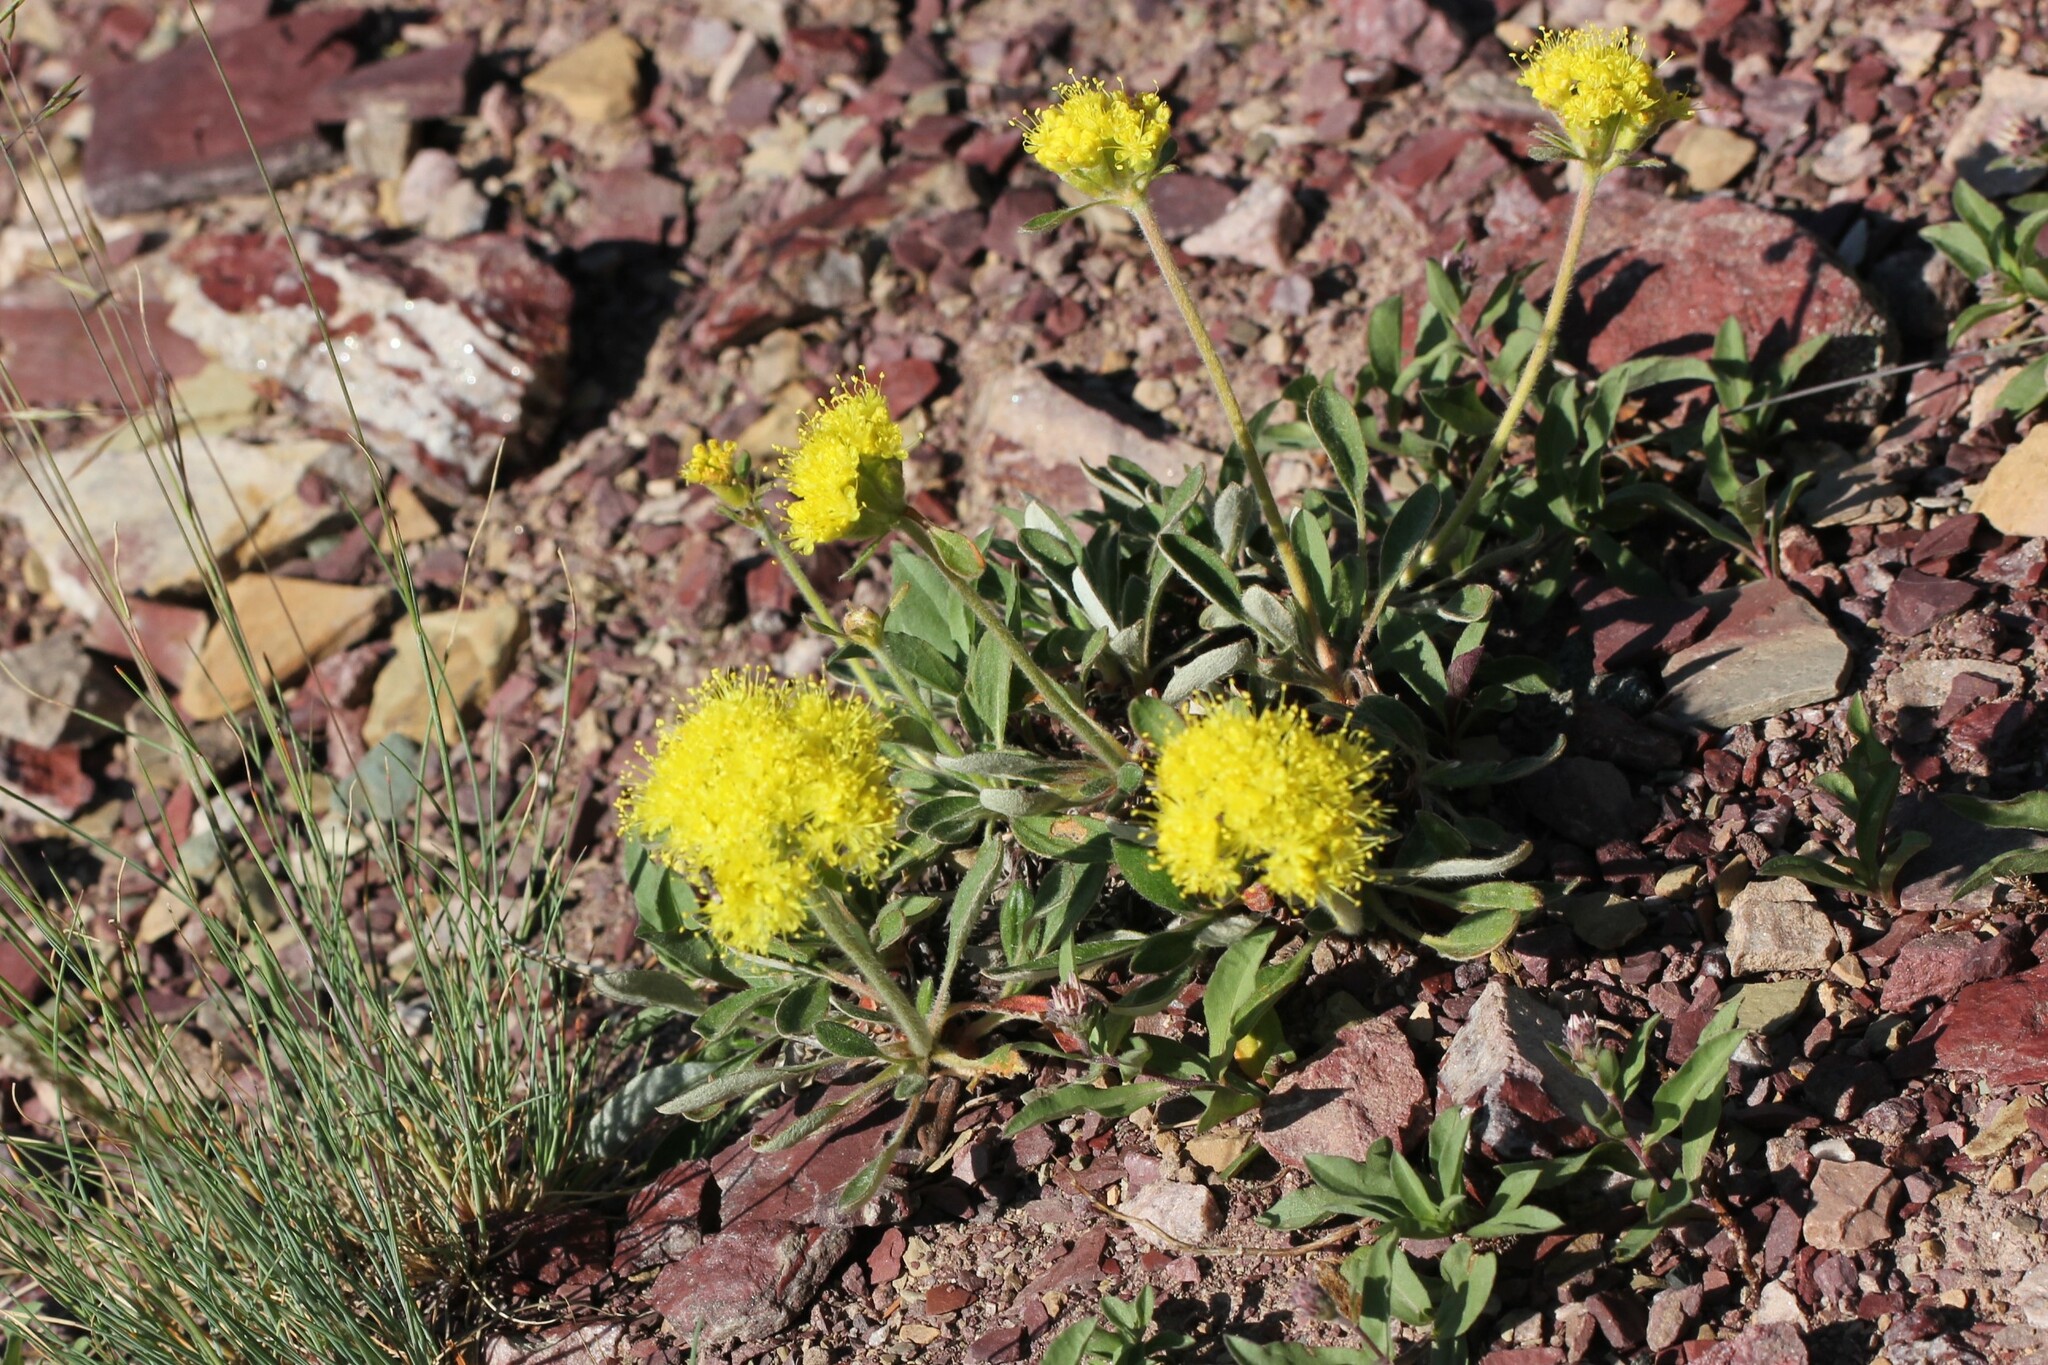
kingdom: Plantae
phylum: Tracheophyta
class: Magnoliopsida
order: Caryophyllales
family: Polygonaceae
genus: Eriogonum
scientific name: Eriogonum flavum
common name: Alpine golden wild buckwheat
